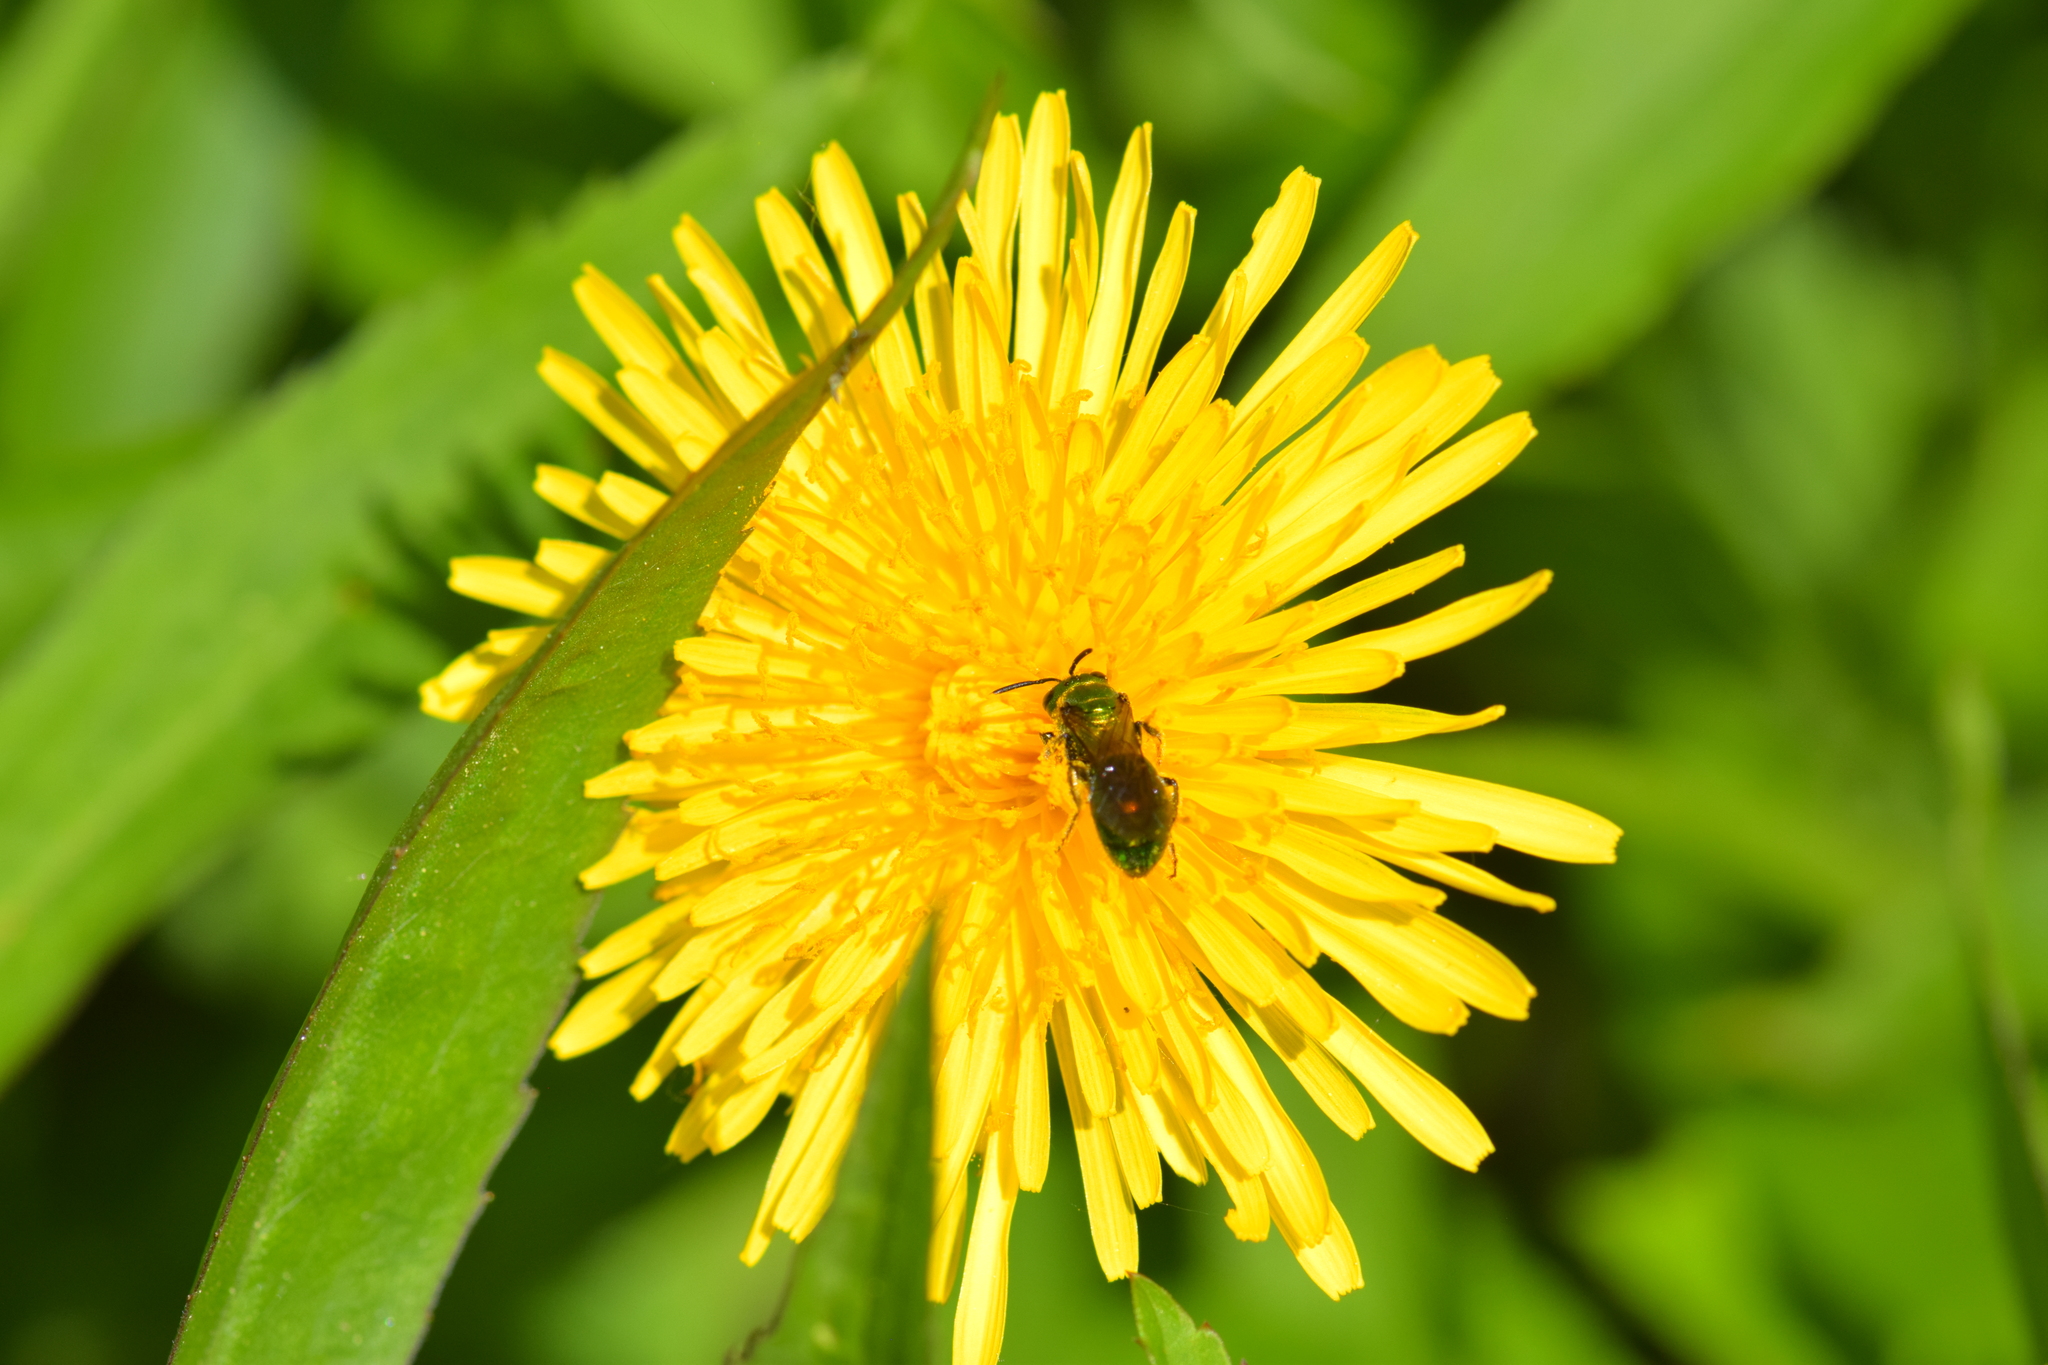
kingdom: Animalia
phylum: Arthropoda
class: Insecta
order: Hymenoptera
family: Halictidae
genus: Augochlora
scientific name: Augochlora pura
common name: Pure green sweat bee
